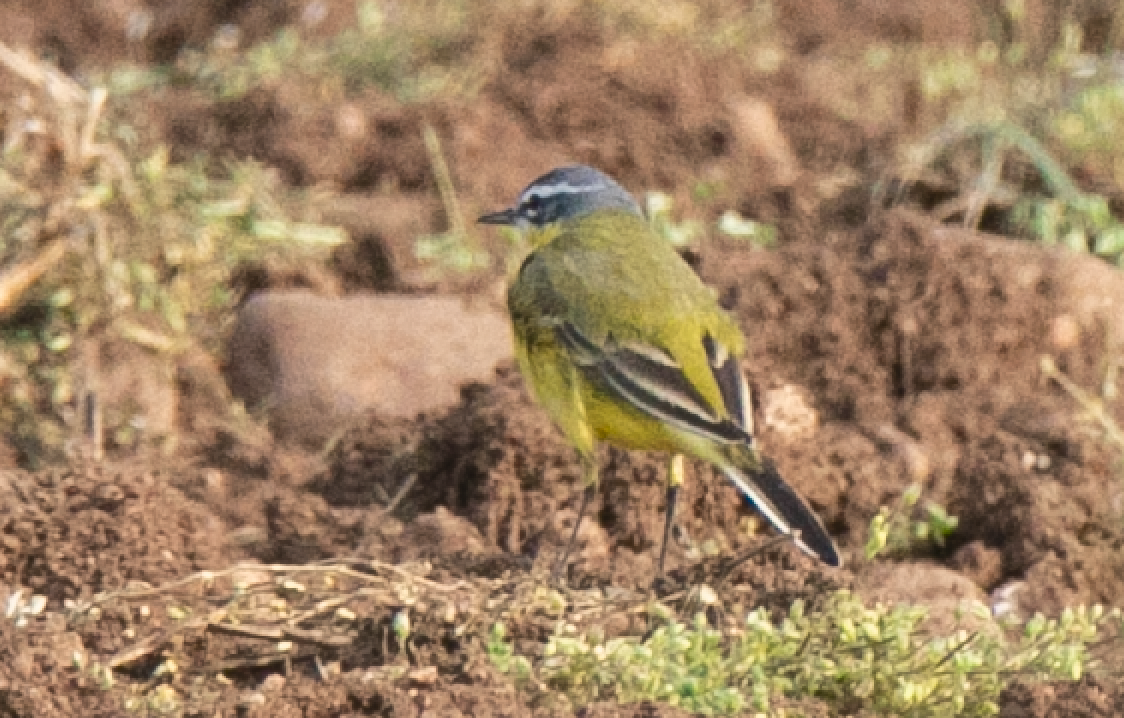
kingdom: Animalia
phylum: Chordata
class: Aves
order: Passeriformes
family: Motacillidae
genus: Motacilla
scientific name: Motacilla flava
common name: Western yellow wagtail
